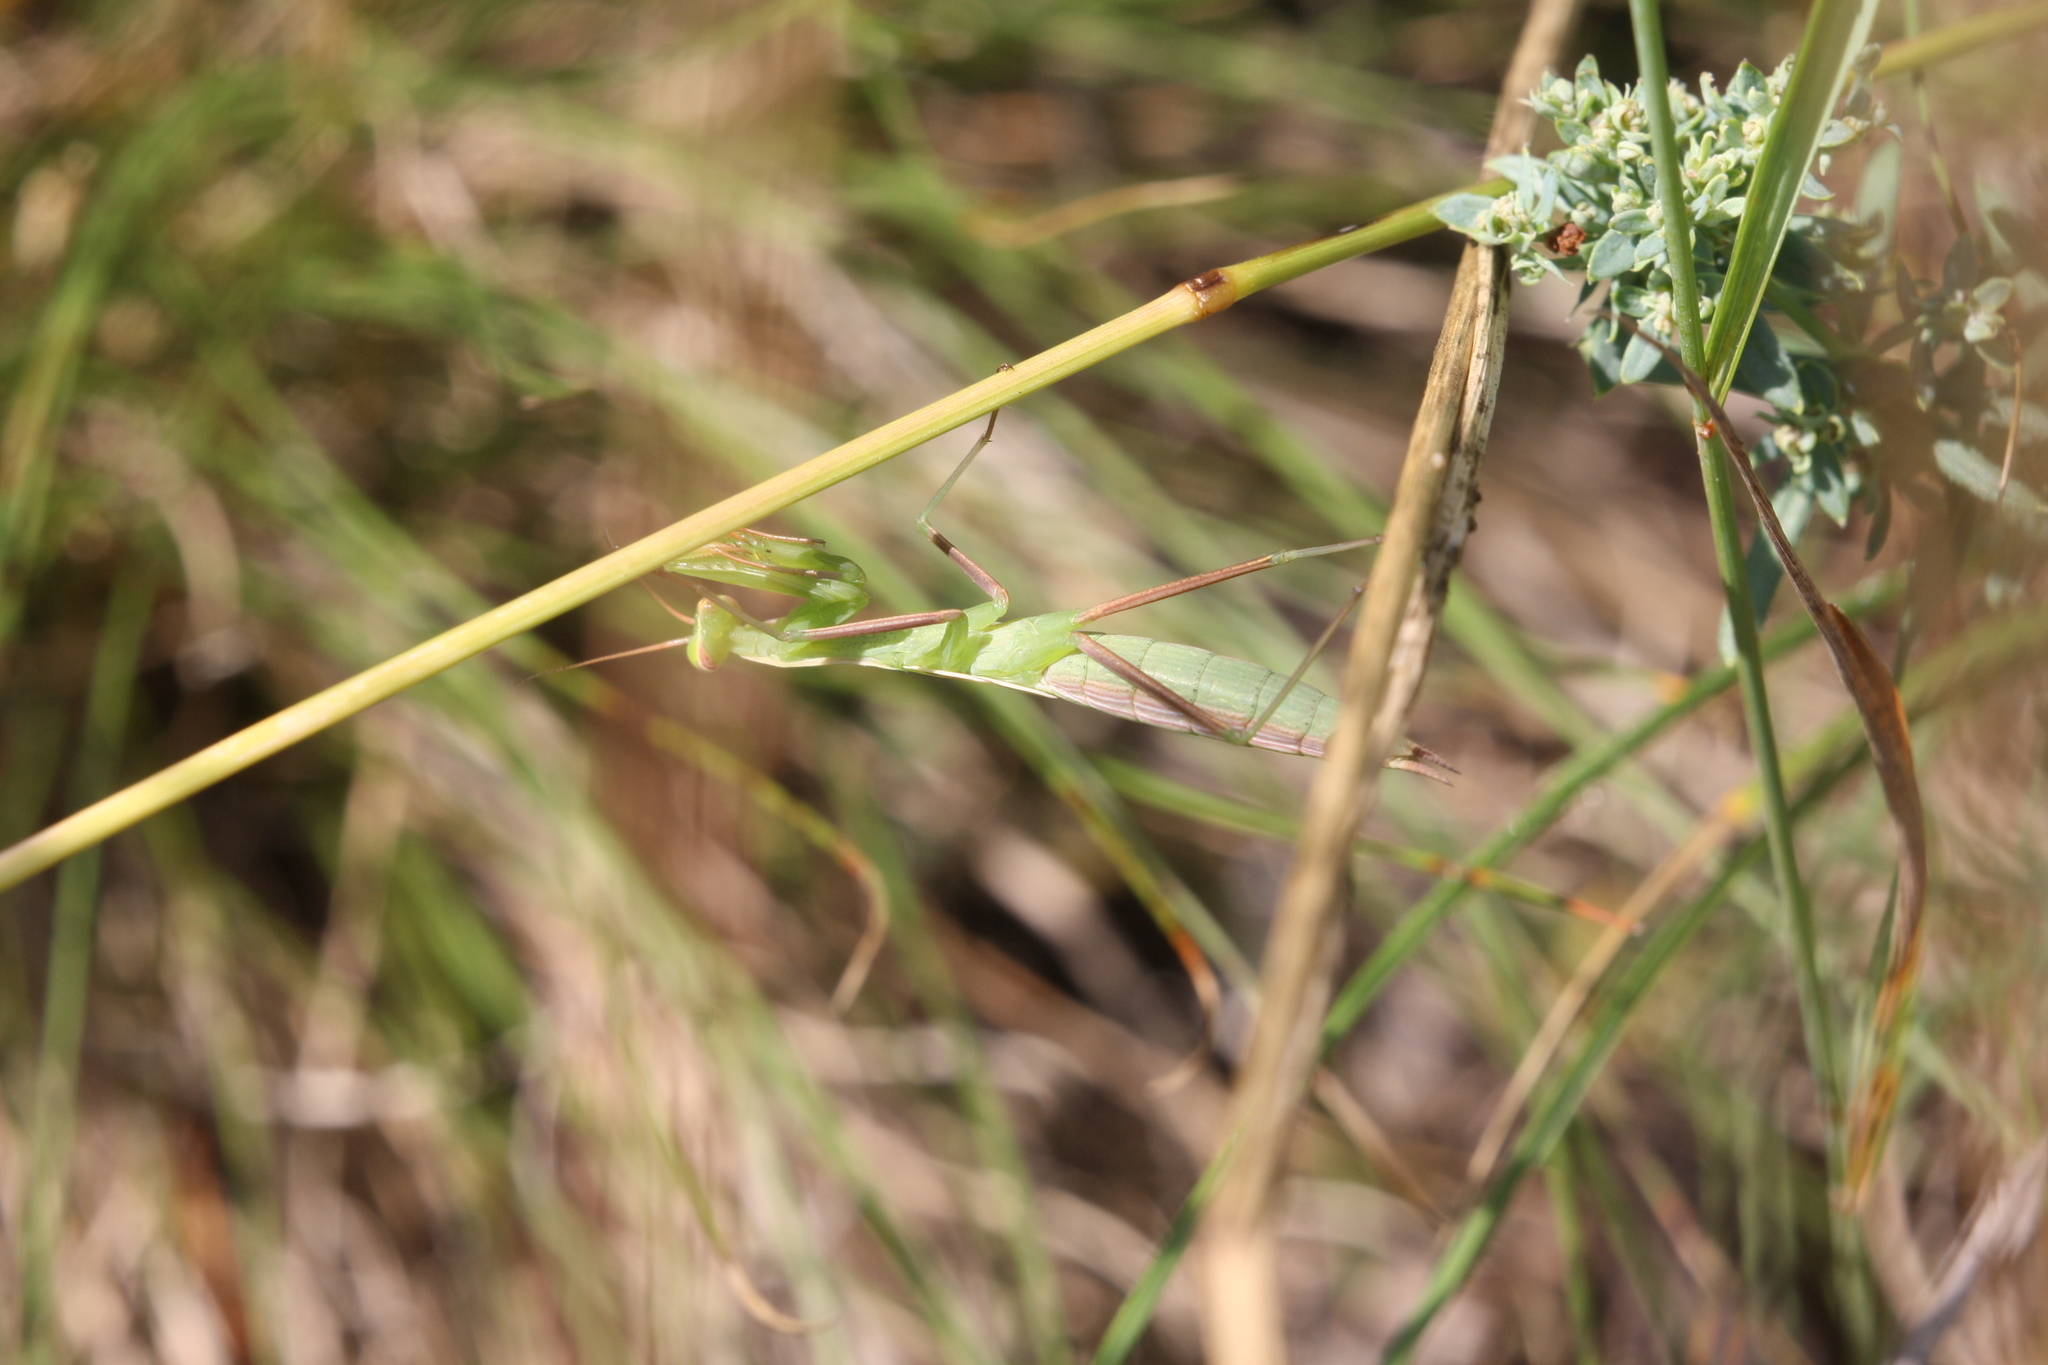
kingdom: Animalia
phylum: Arthropoda
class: Insecta
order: Mantodea
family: Mantidae
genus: Mantis
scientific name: Mantis religiosa
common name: Praying mantis
